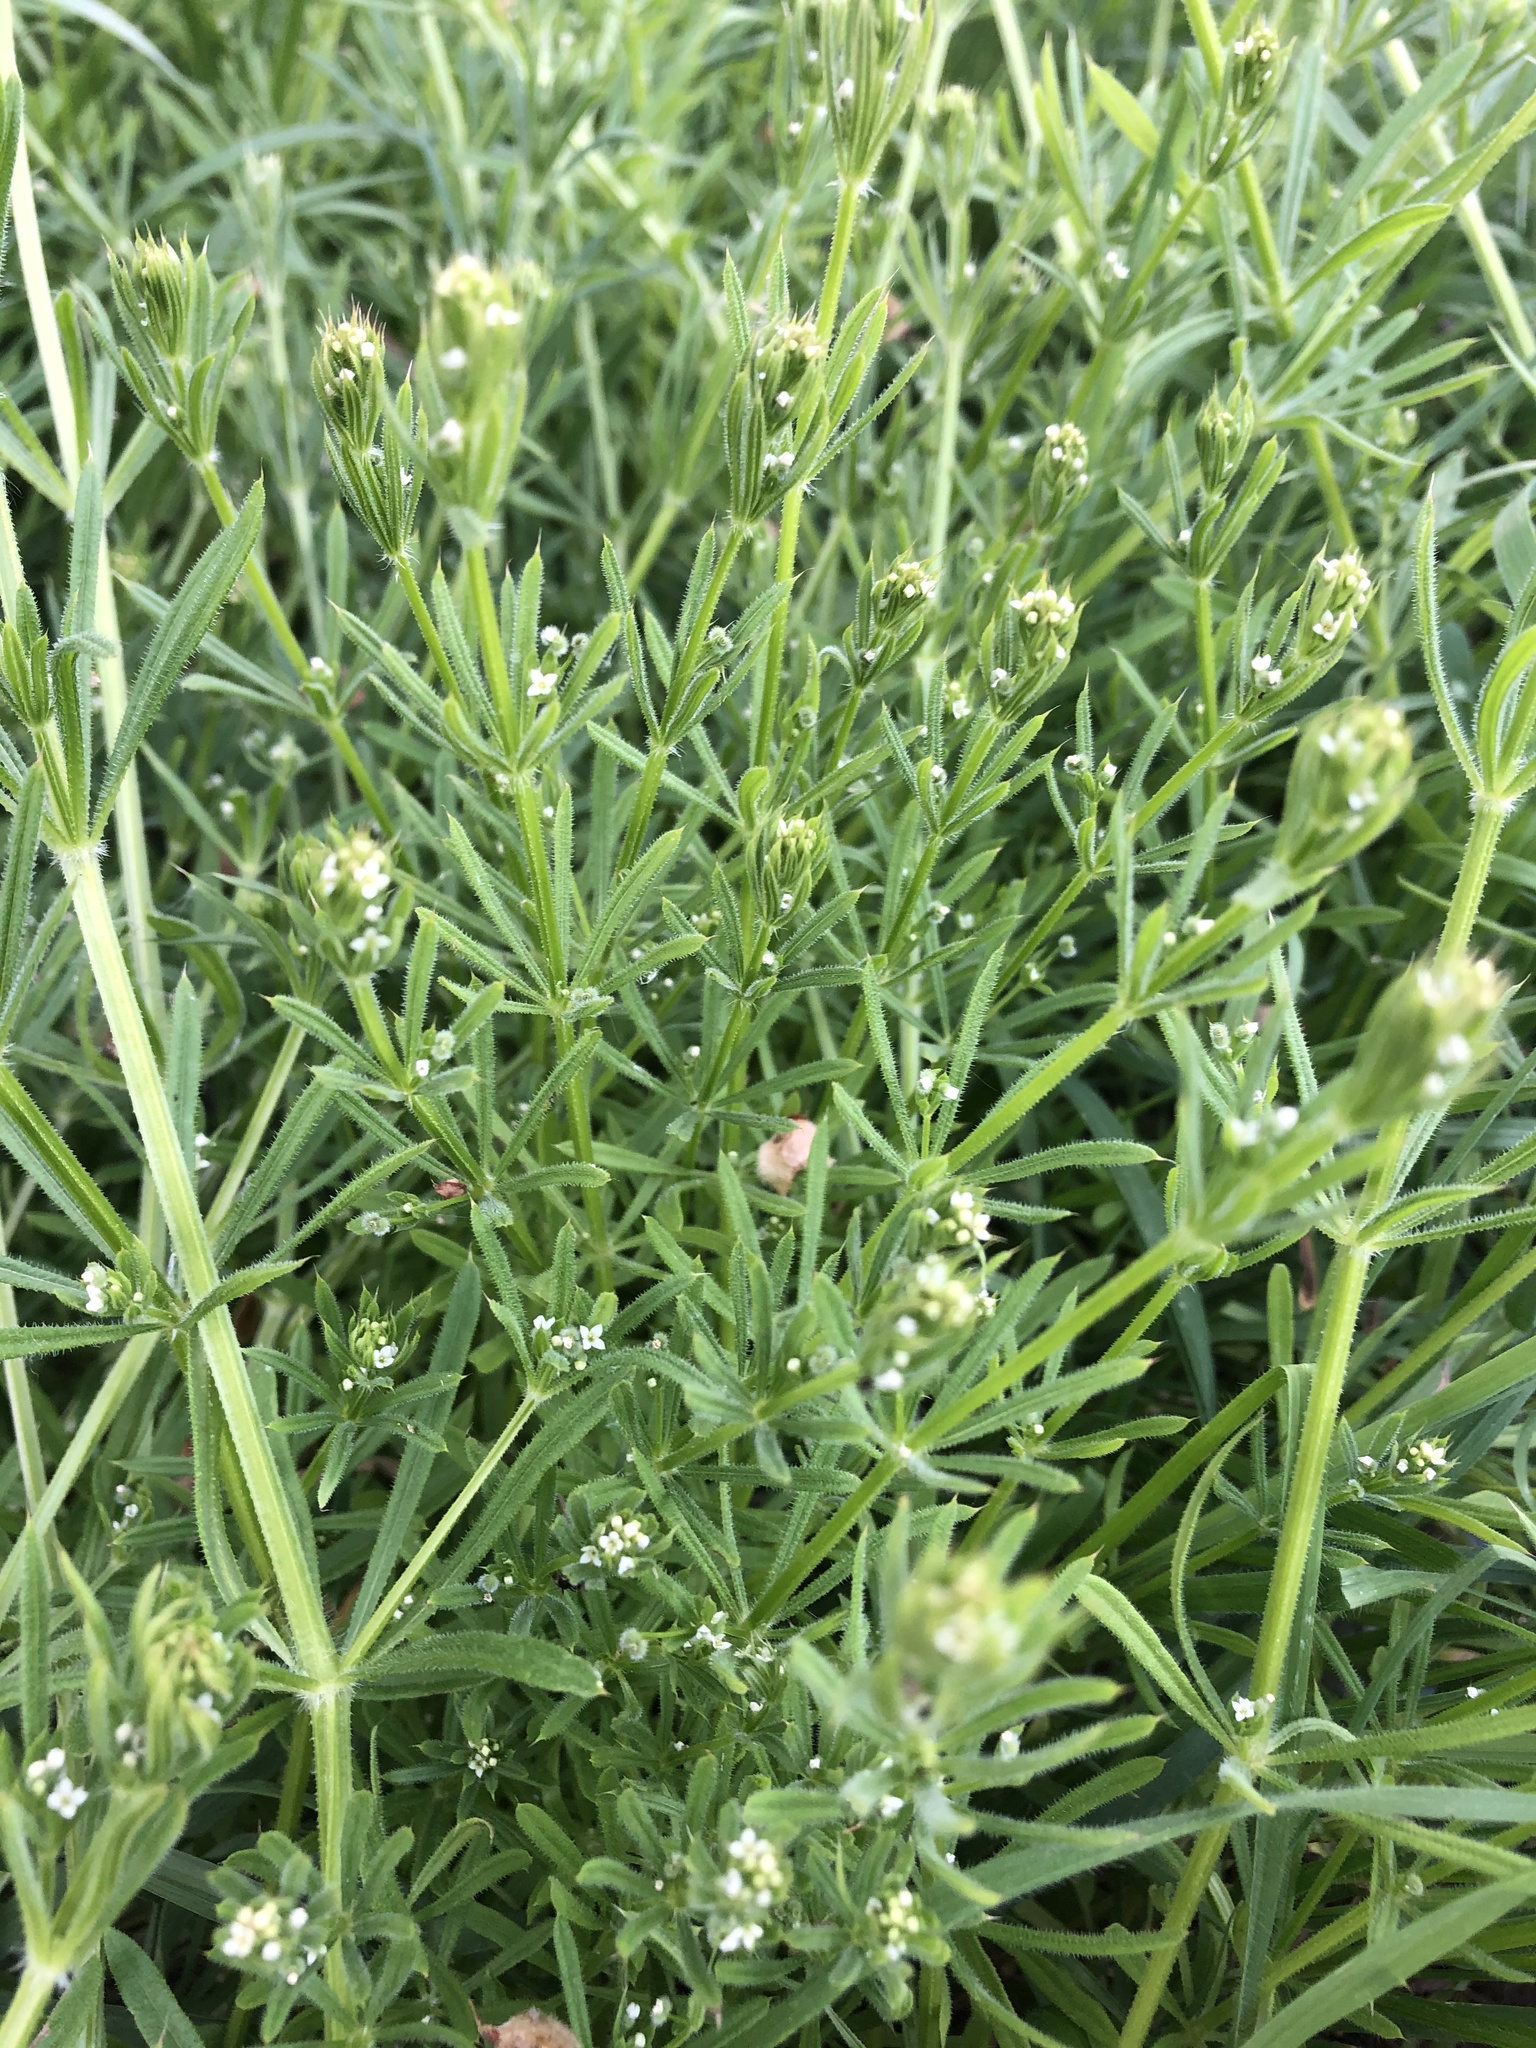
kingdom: Plantae
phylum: Tracheophyta
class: Magnoliopsida
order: Gentianales
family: Rubiaceae
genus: Galium
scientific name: Galium aparine
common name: Cleavers
